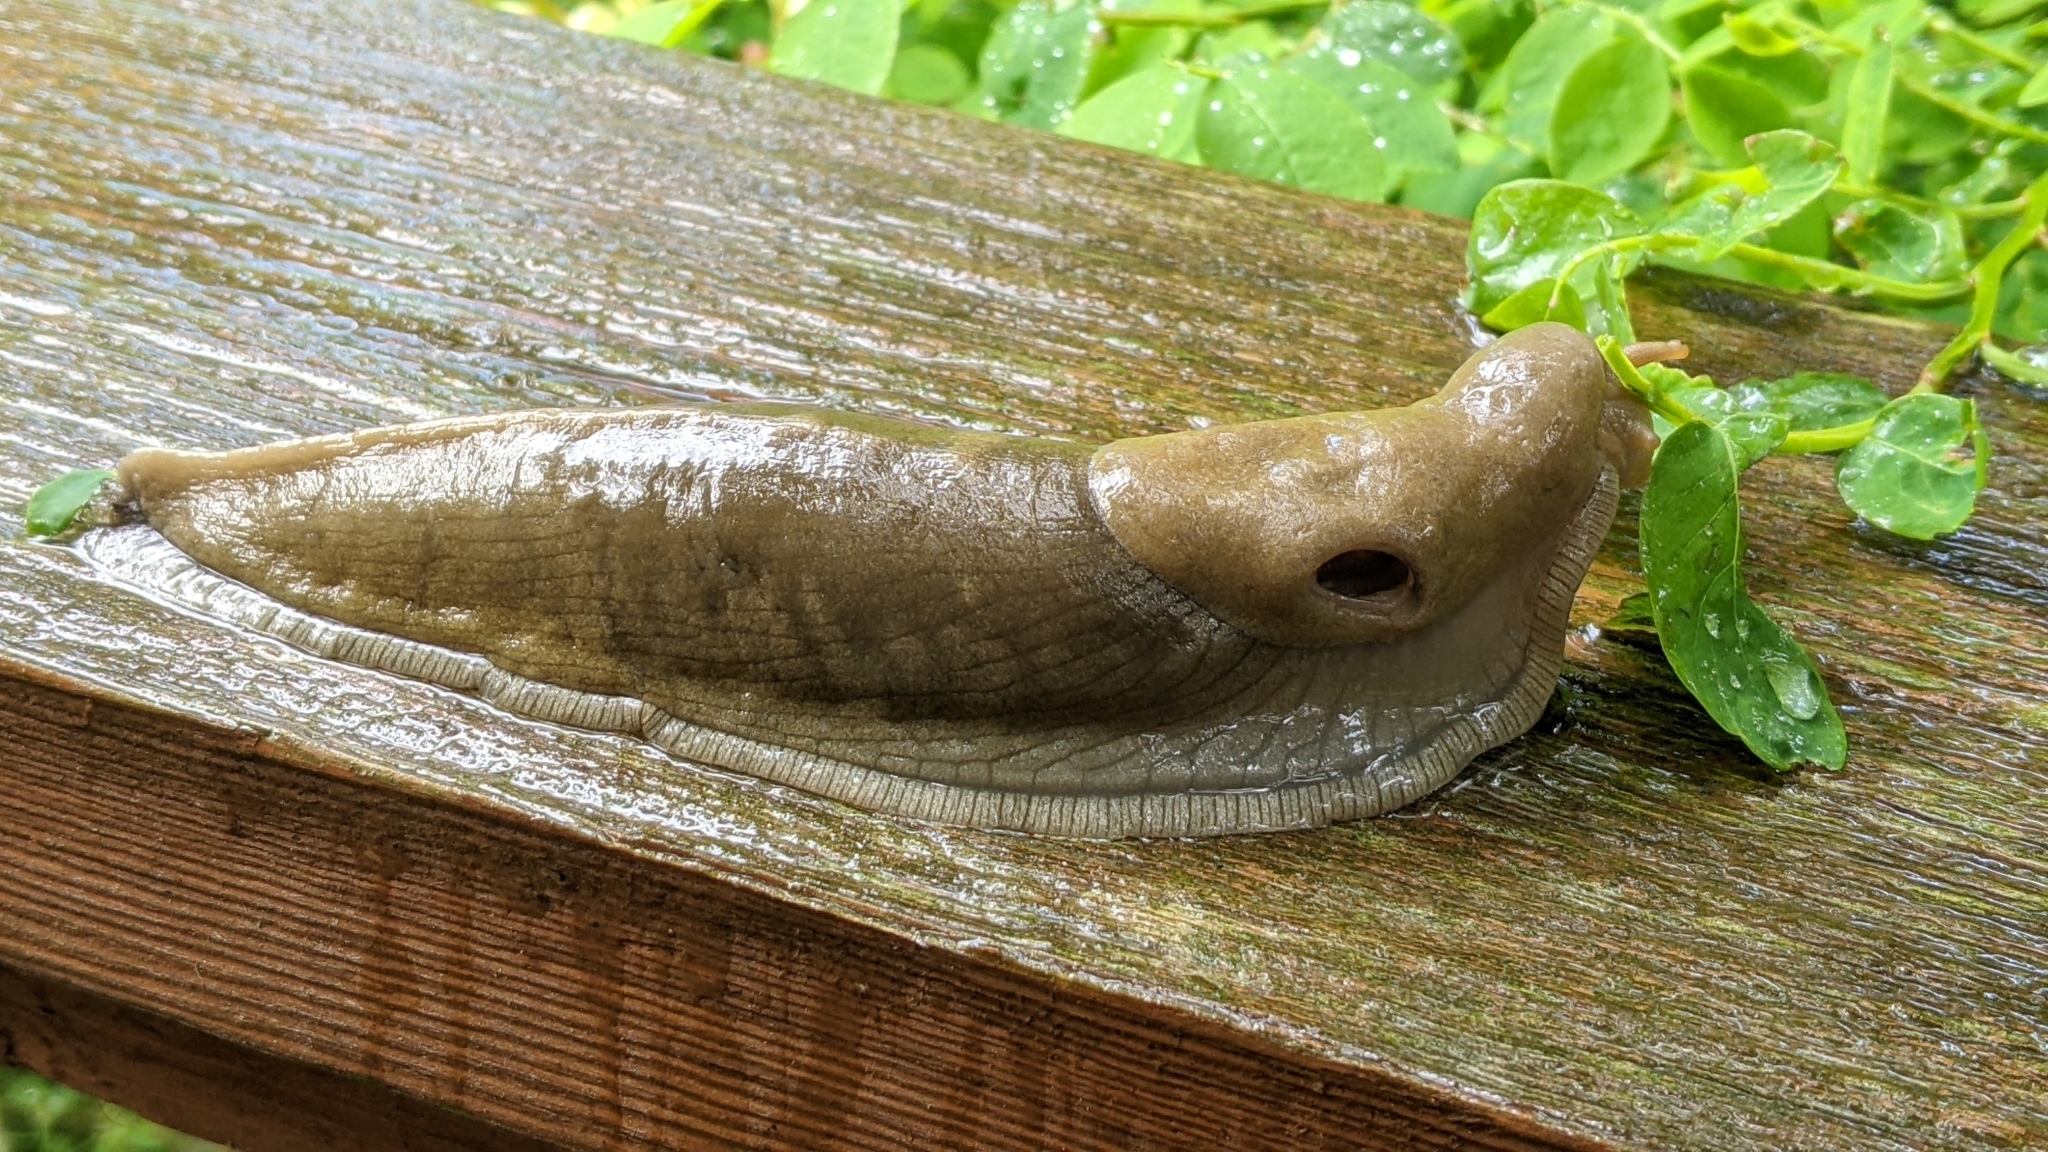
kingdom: Animalia
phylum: Mollusca
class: Gastropoda
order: Stylommatophora
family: Ariolimacidae
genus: Ariolimax
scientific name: Ariolimax columbianus
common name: Pacific banana slug
